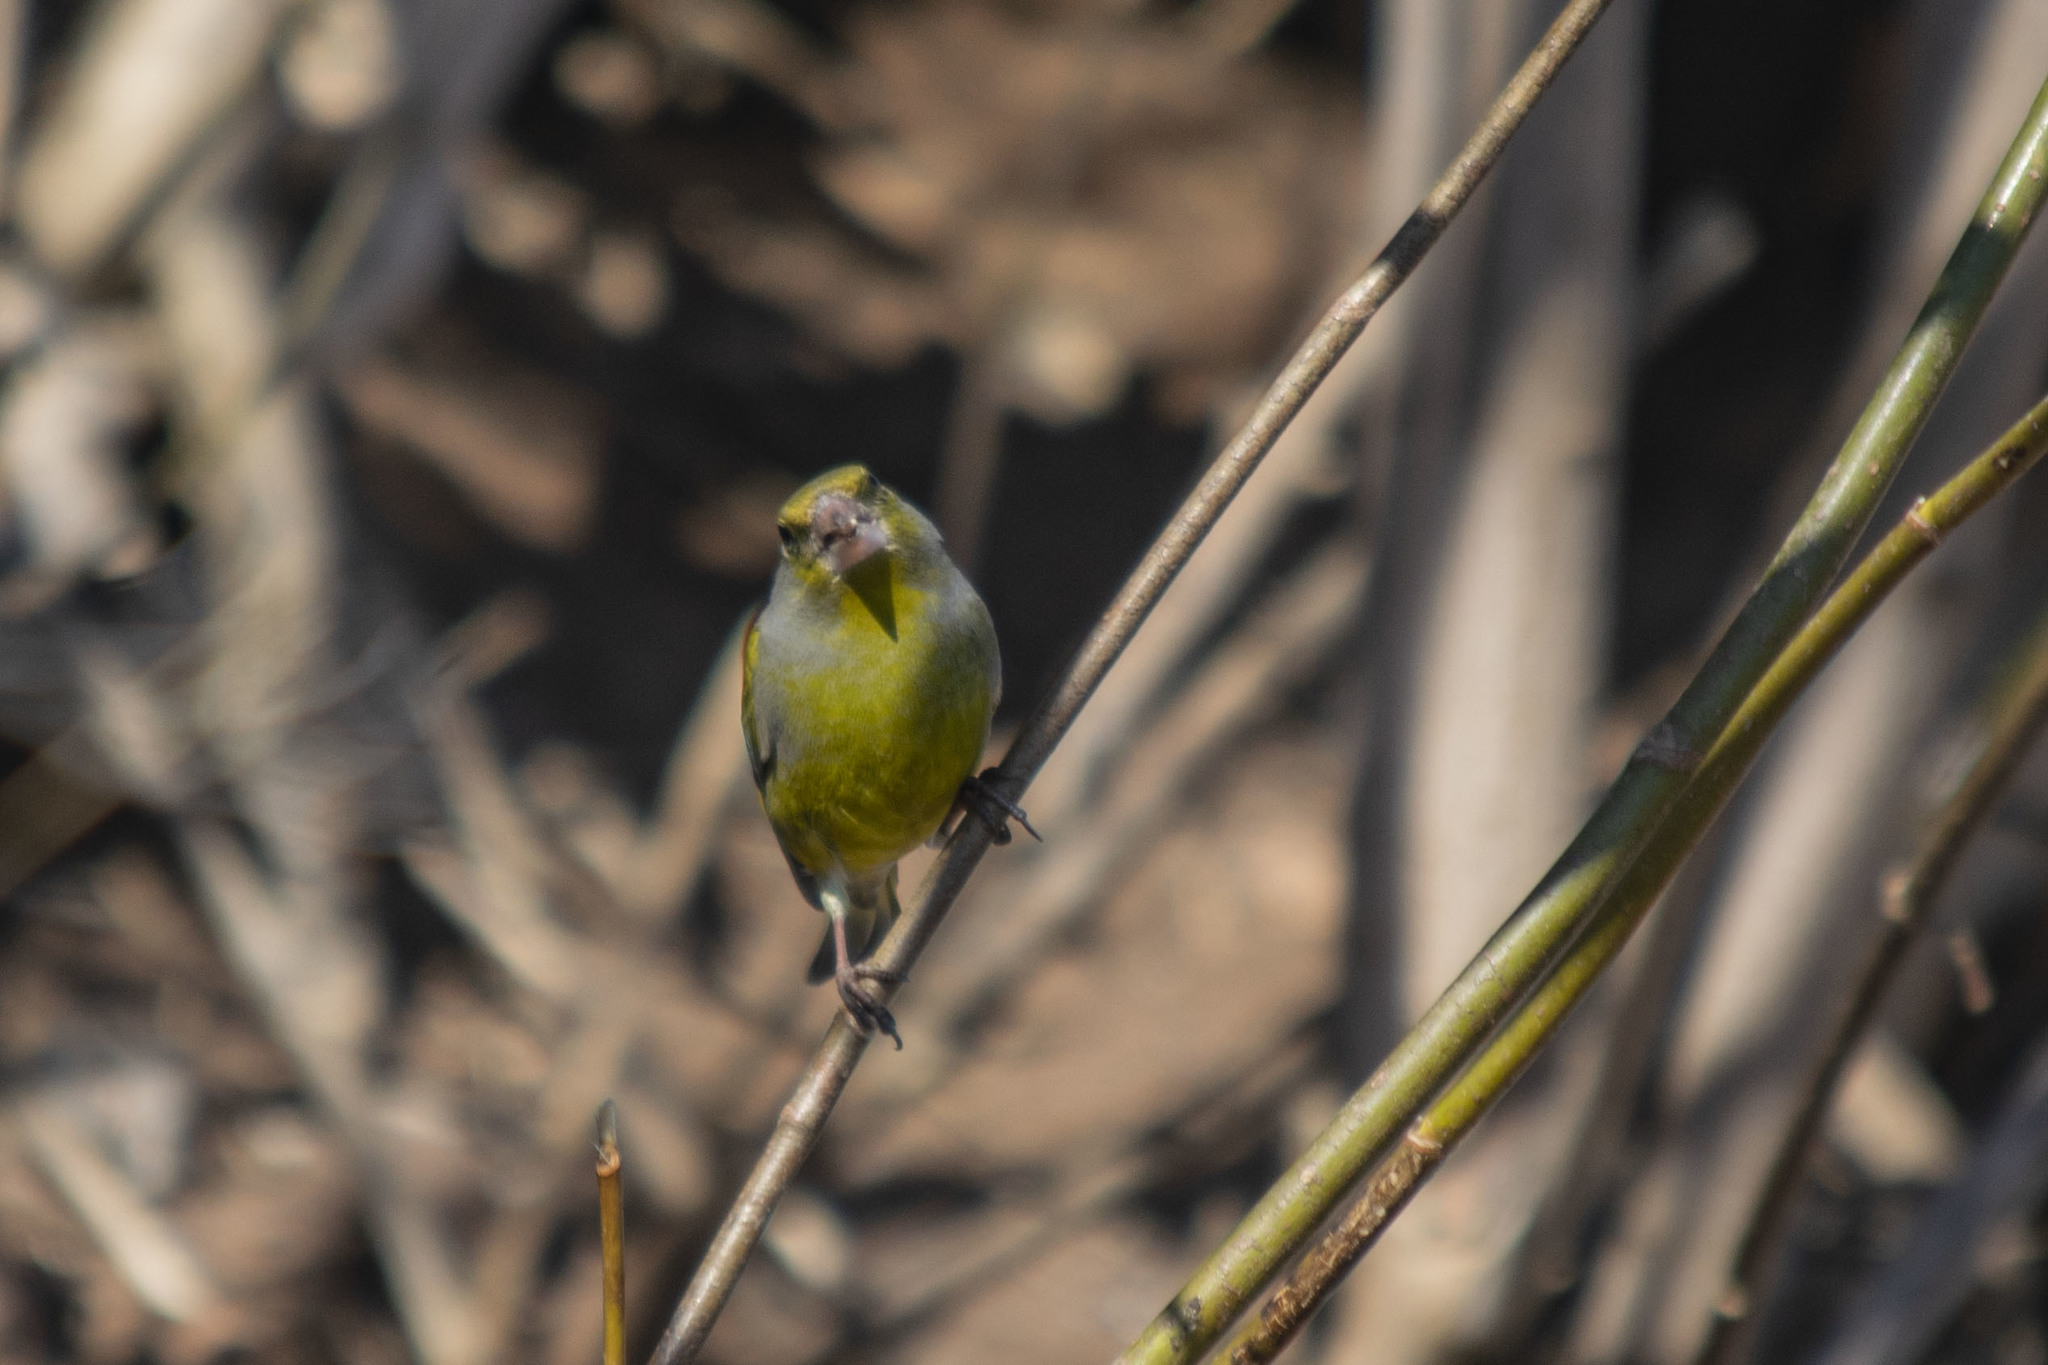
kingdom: Plantae
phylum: Tracheophyta
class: Liliopsida
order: Poales
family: Poaceae
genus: Chloris
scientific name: Chloris chloris
